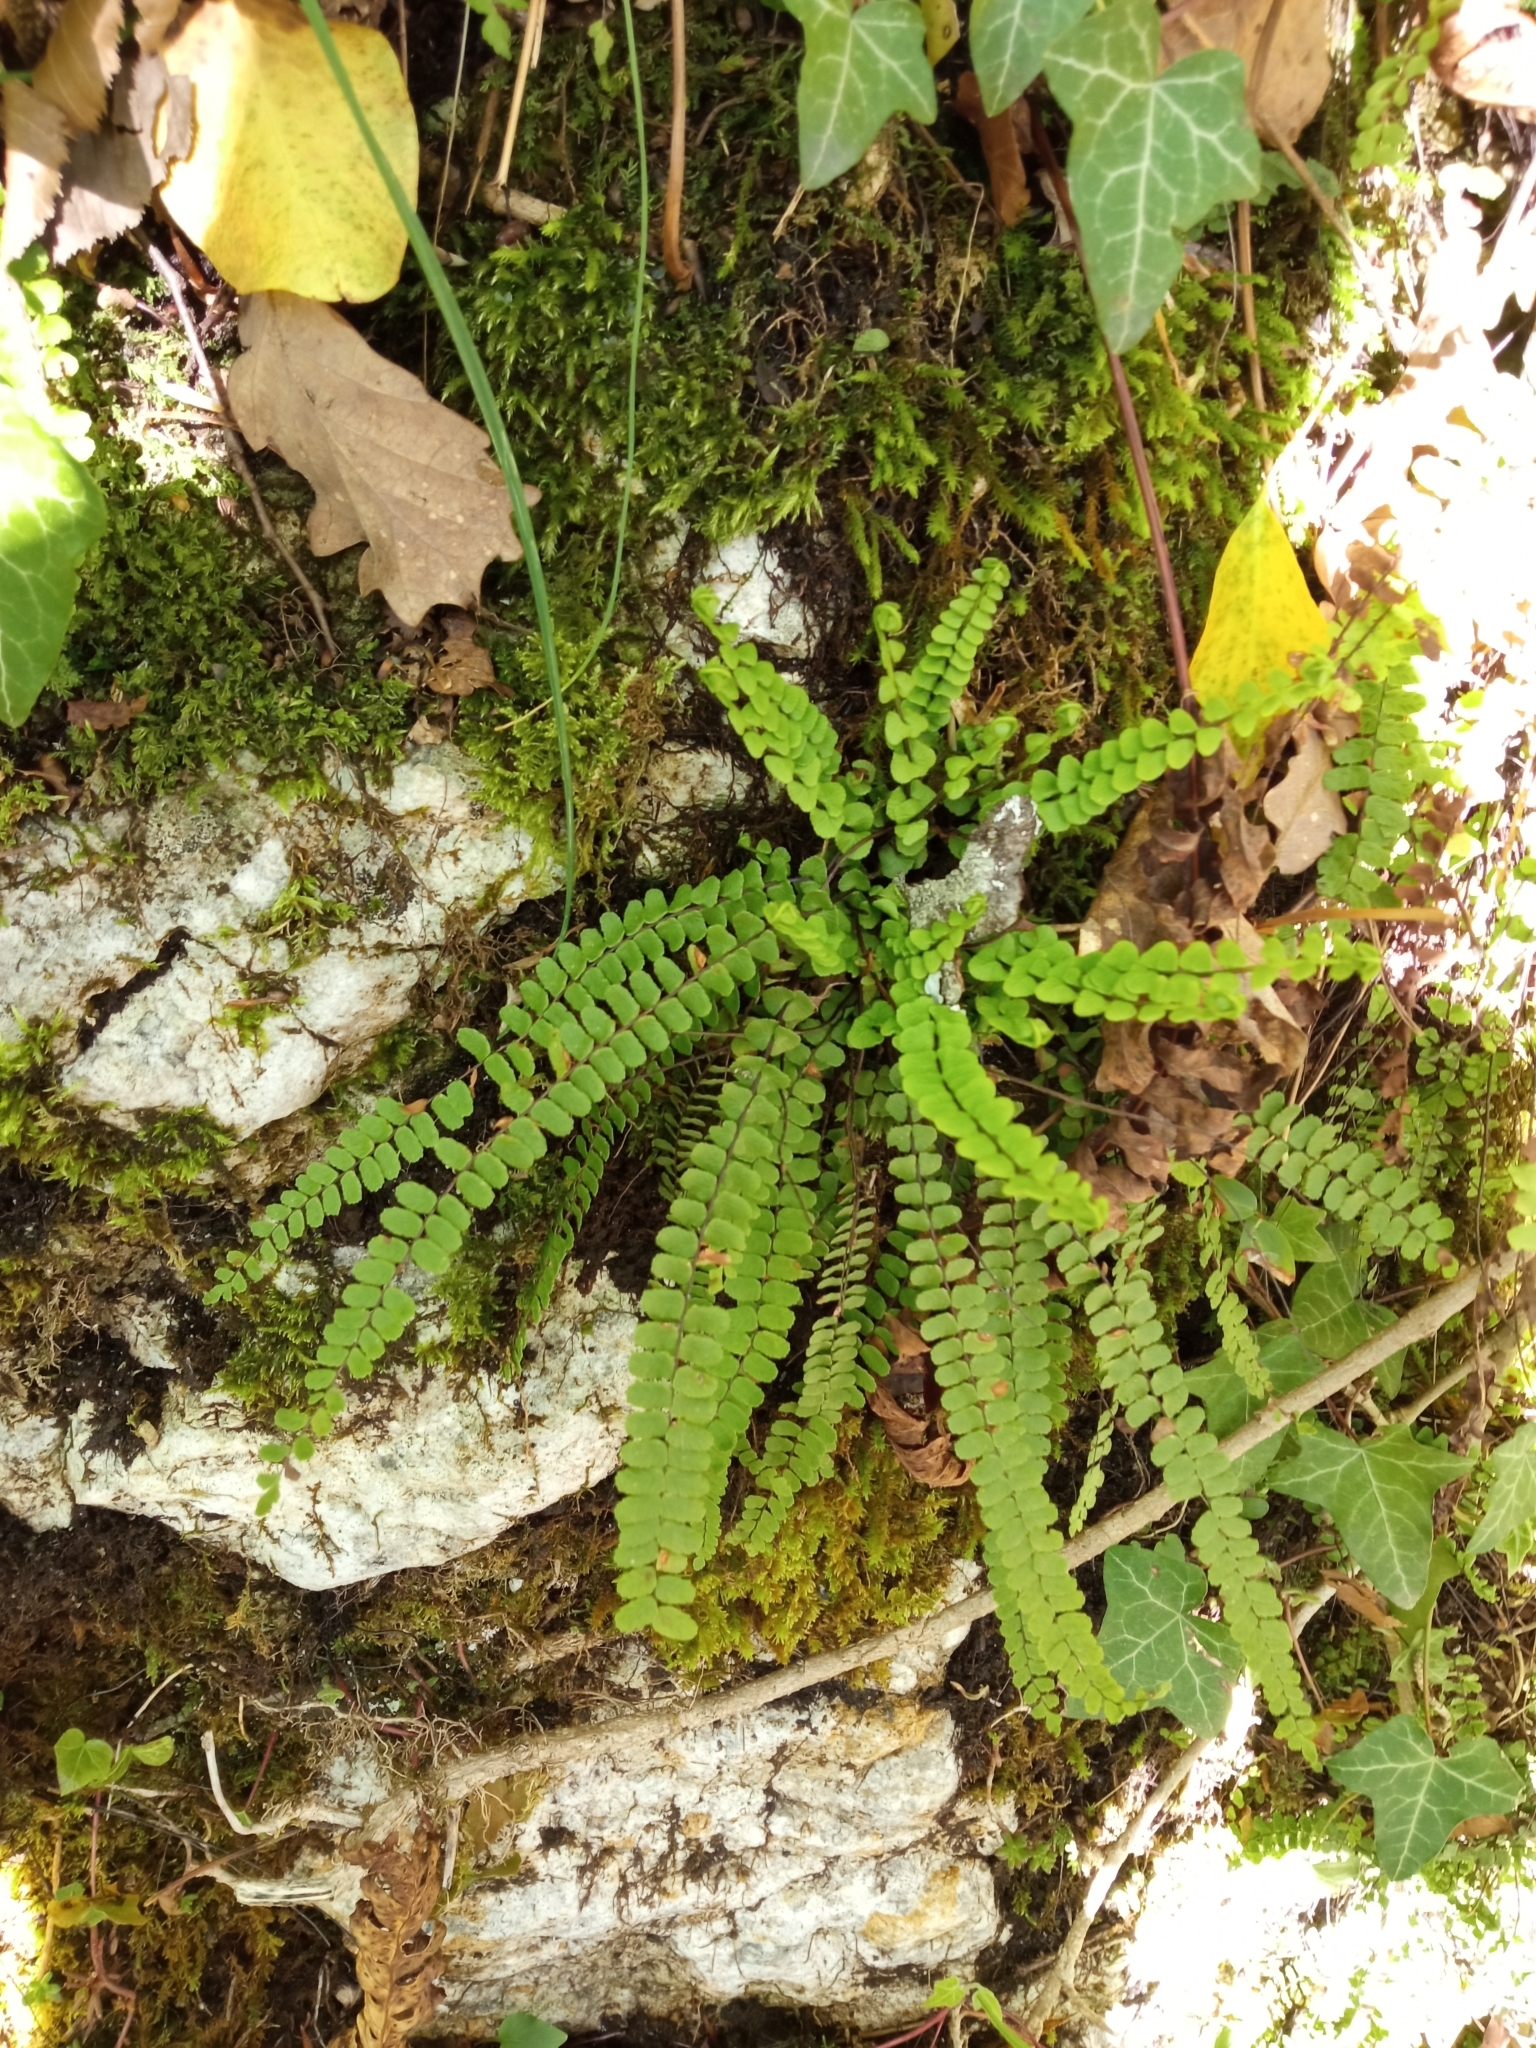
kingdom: Plantae
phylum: Tracheophyta
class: Polypodiopsida
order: Polypodiales
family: Aspleniaceae
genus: Asplenium
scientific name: Asplenium trichomanes
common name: Maidenhair spleenwort
